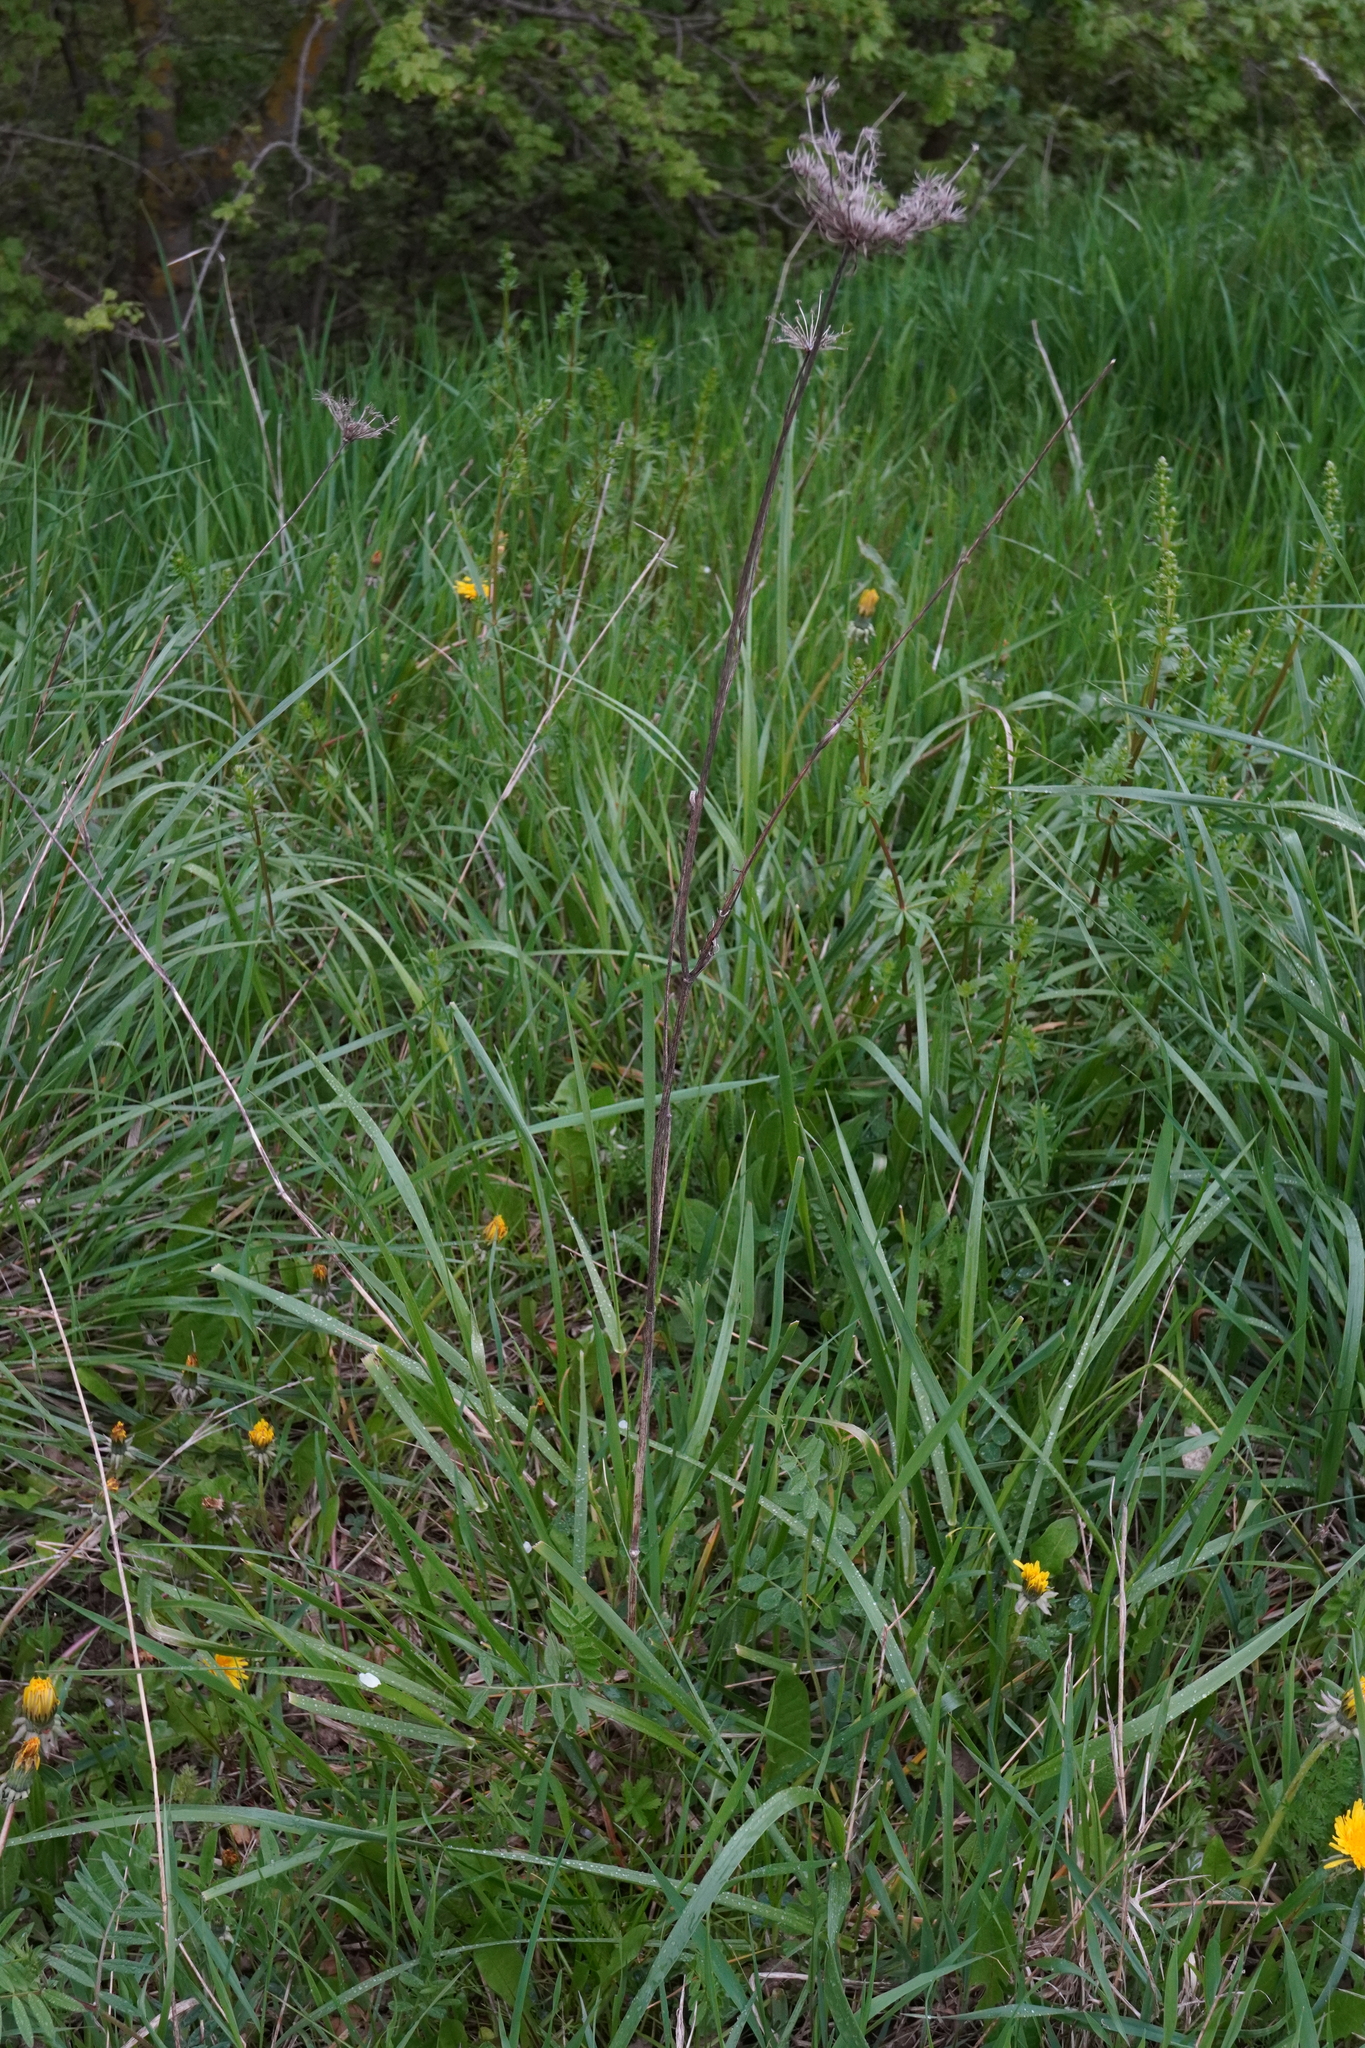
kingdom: Plantae
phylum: Tracheophyta
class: Magnoliopsida
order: Apiales
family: Apiaceae
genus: Daucus
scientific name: Daucus carota
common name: Wild carrot
